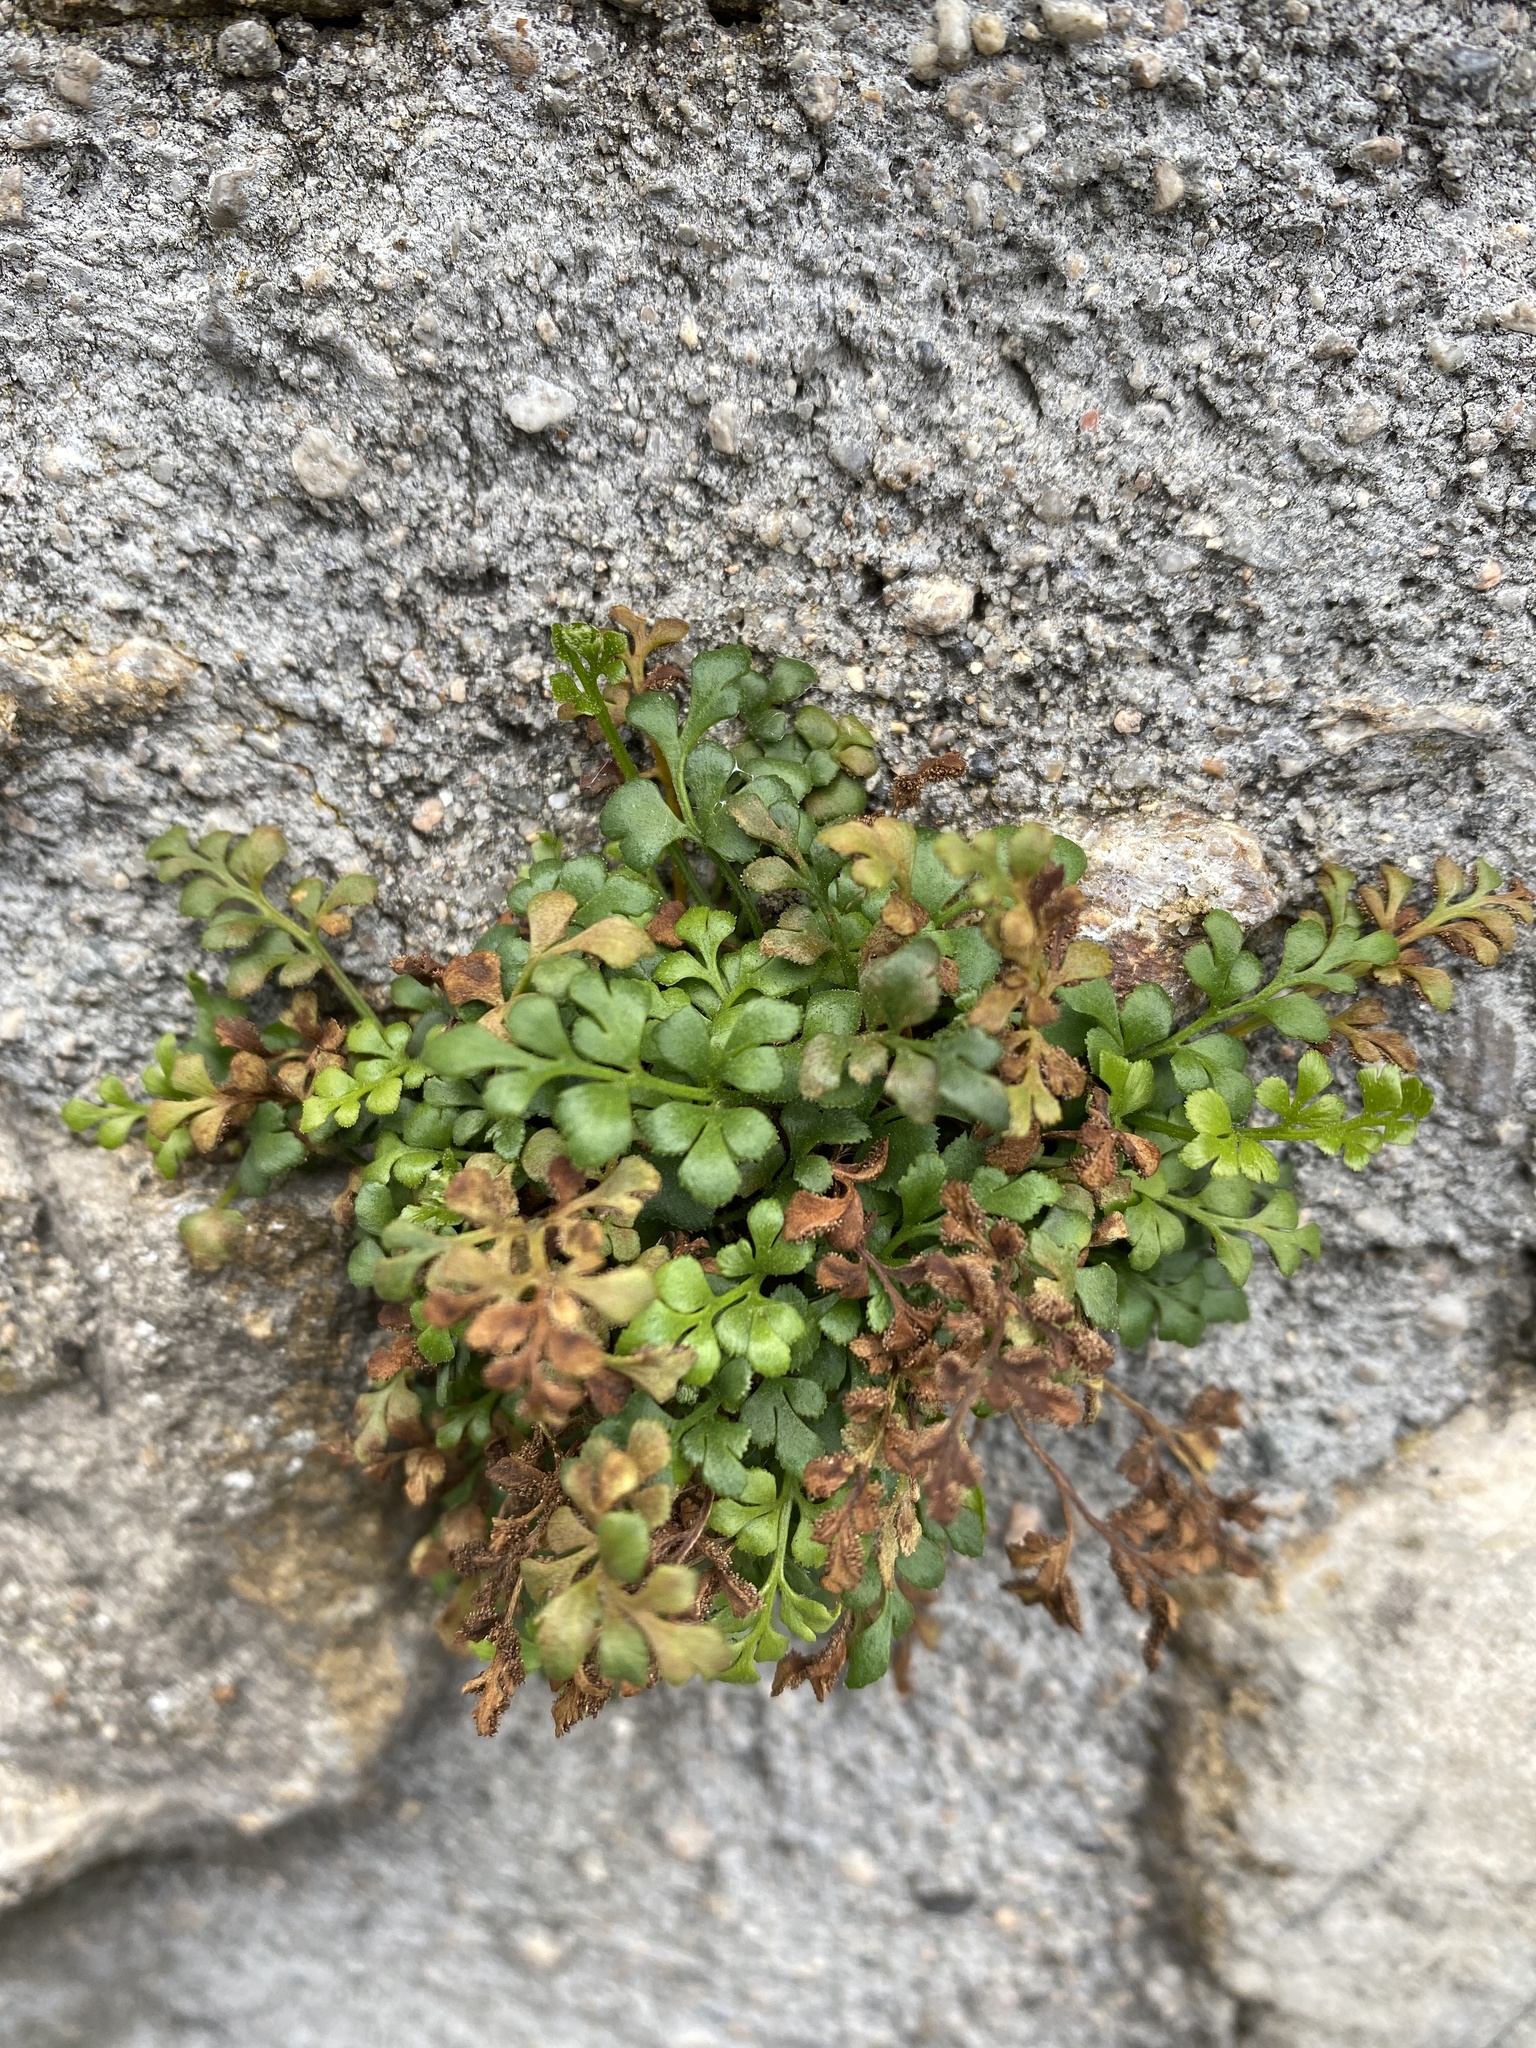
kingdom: Plantae
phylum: Tracheophyta
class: Polypodiopsida
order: Polypodiales
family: Aspleniaceae
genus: Asplenium
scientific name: Asplenium ruta-muraria
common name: Wall-rue
